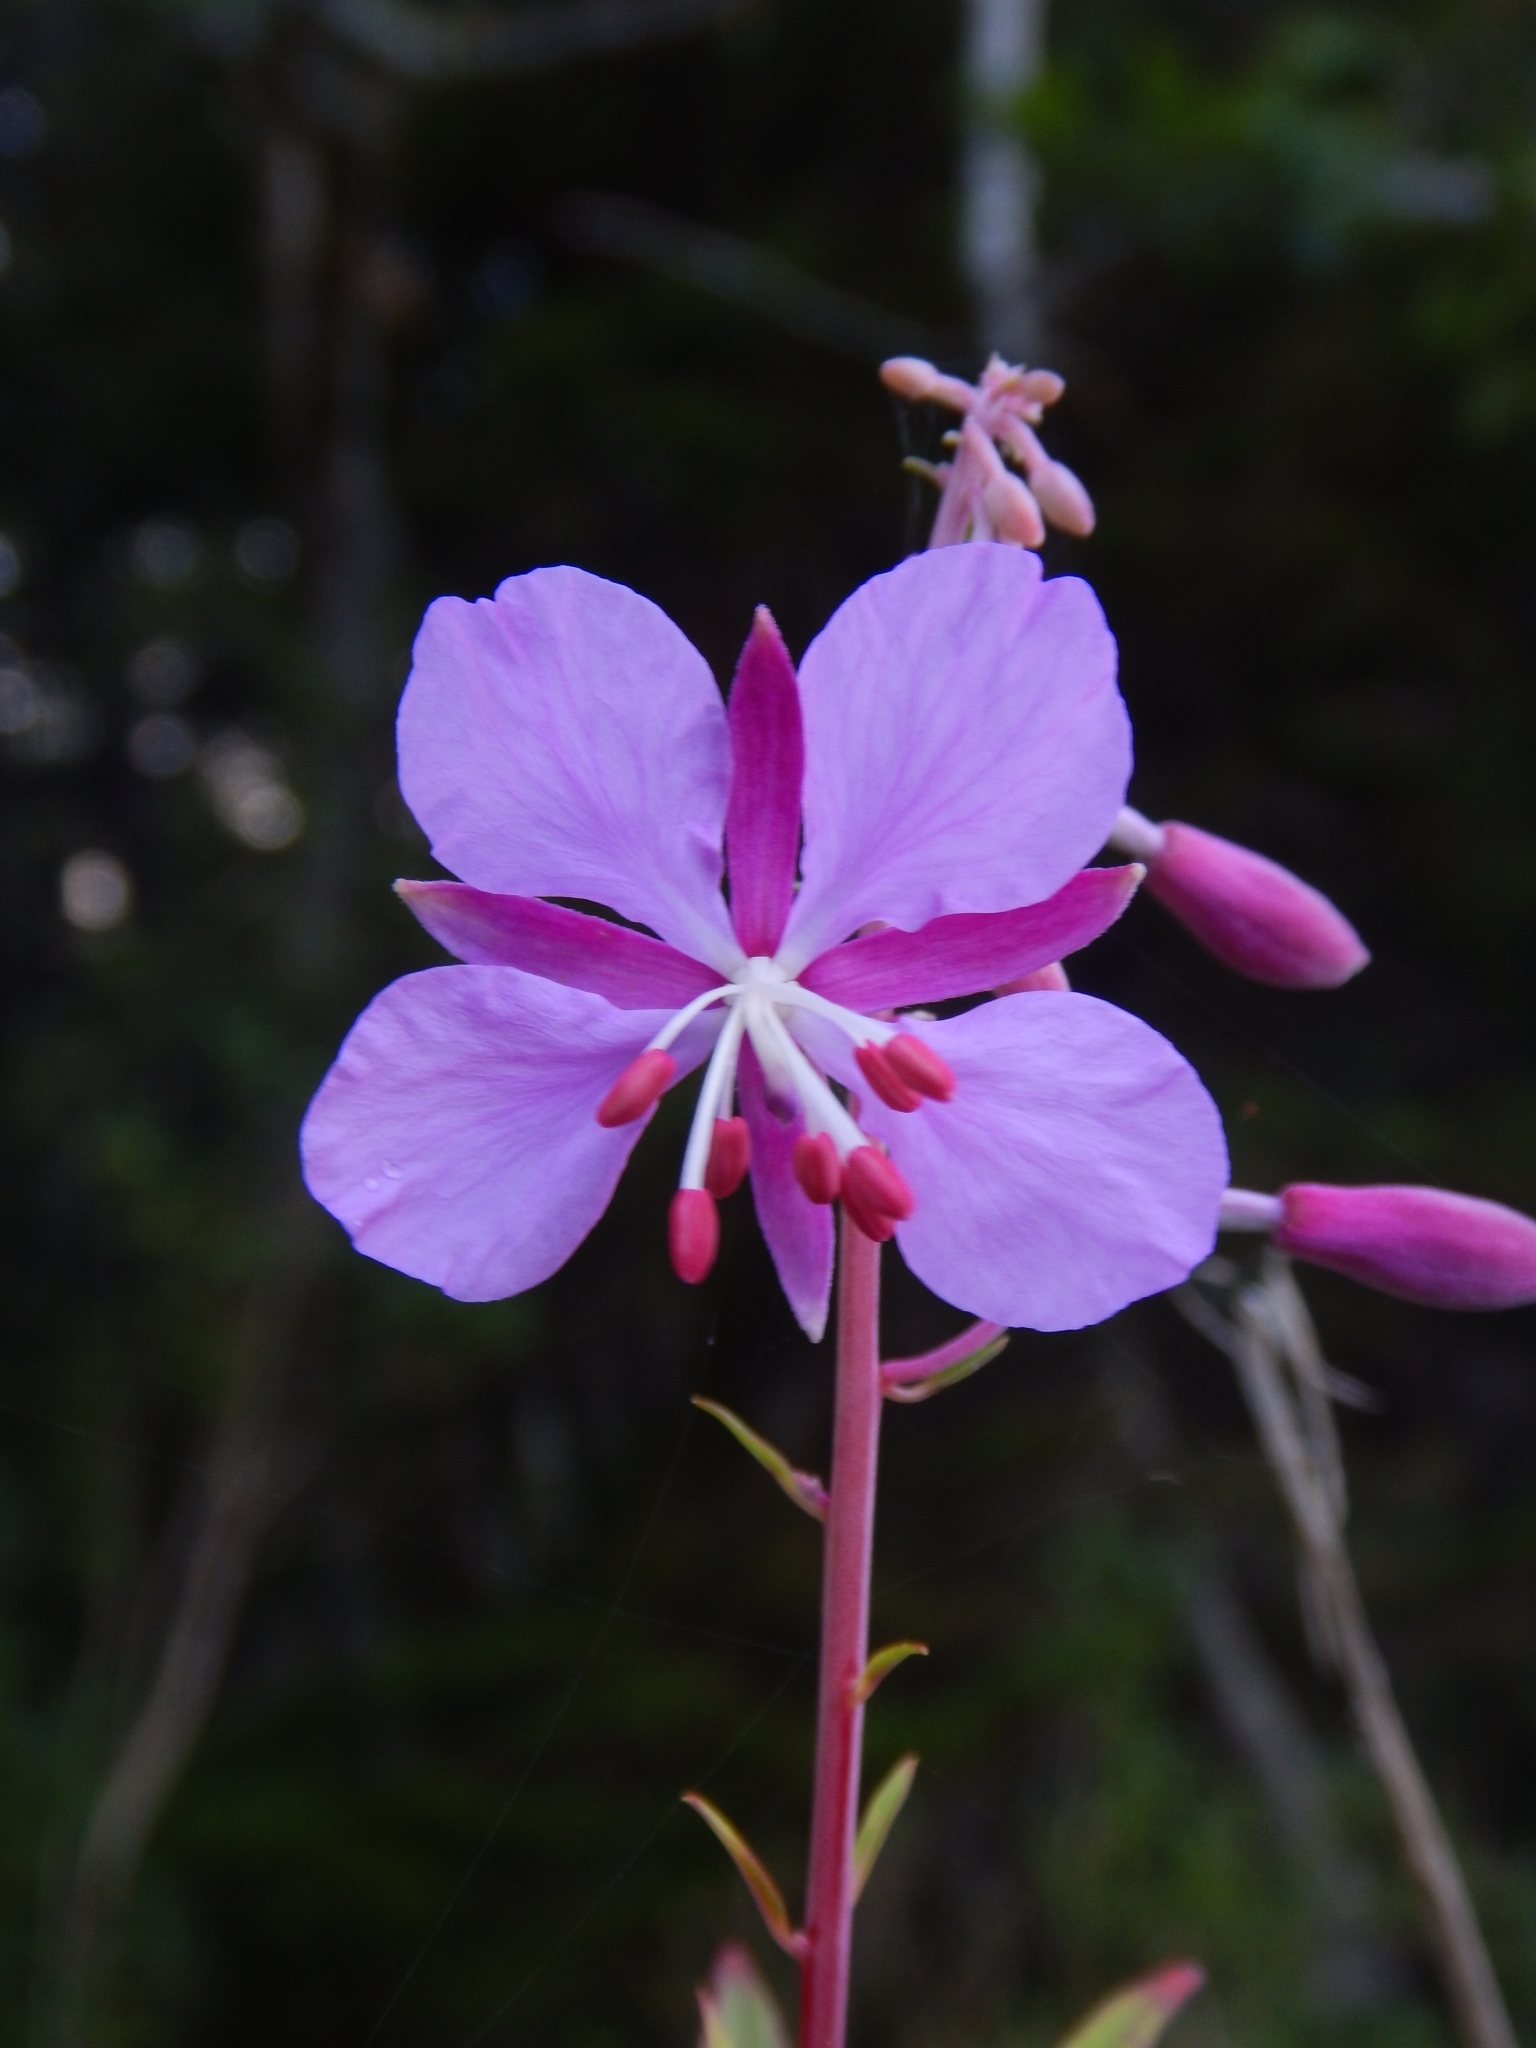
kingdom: Plantae
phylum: Tracheophyta
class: Magnoliopsida
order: Myrtales
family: Onagraceae
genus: Chamaenerion
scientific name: Chamaenerion angustifolium
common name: Fireweed
